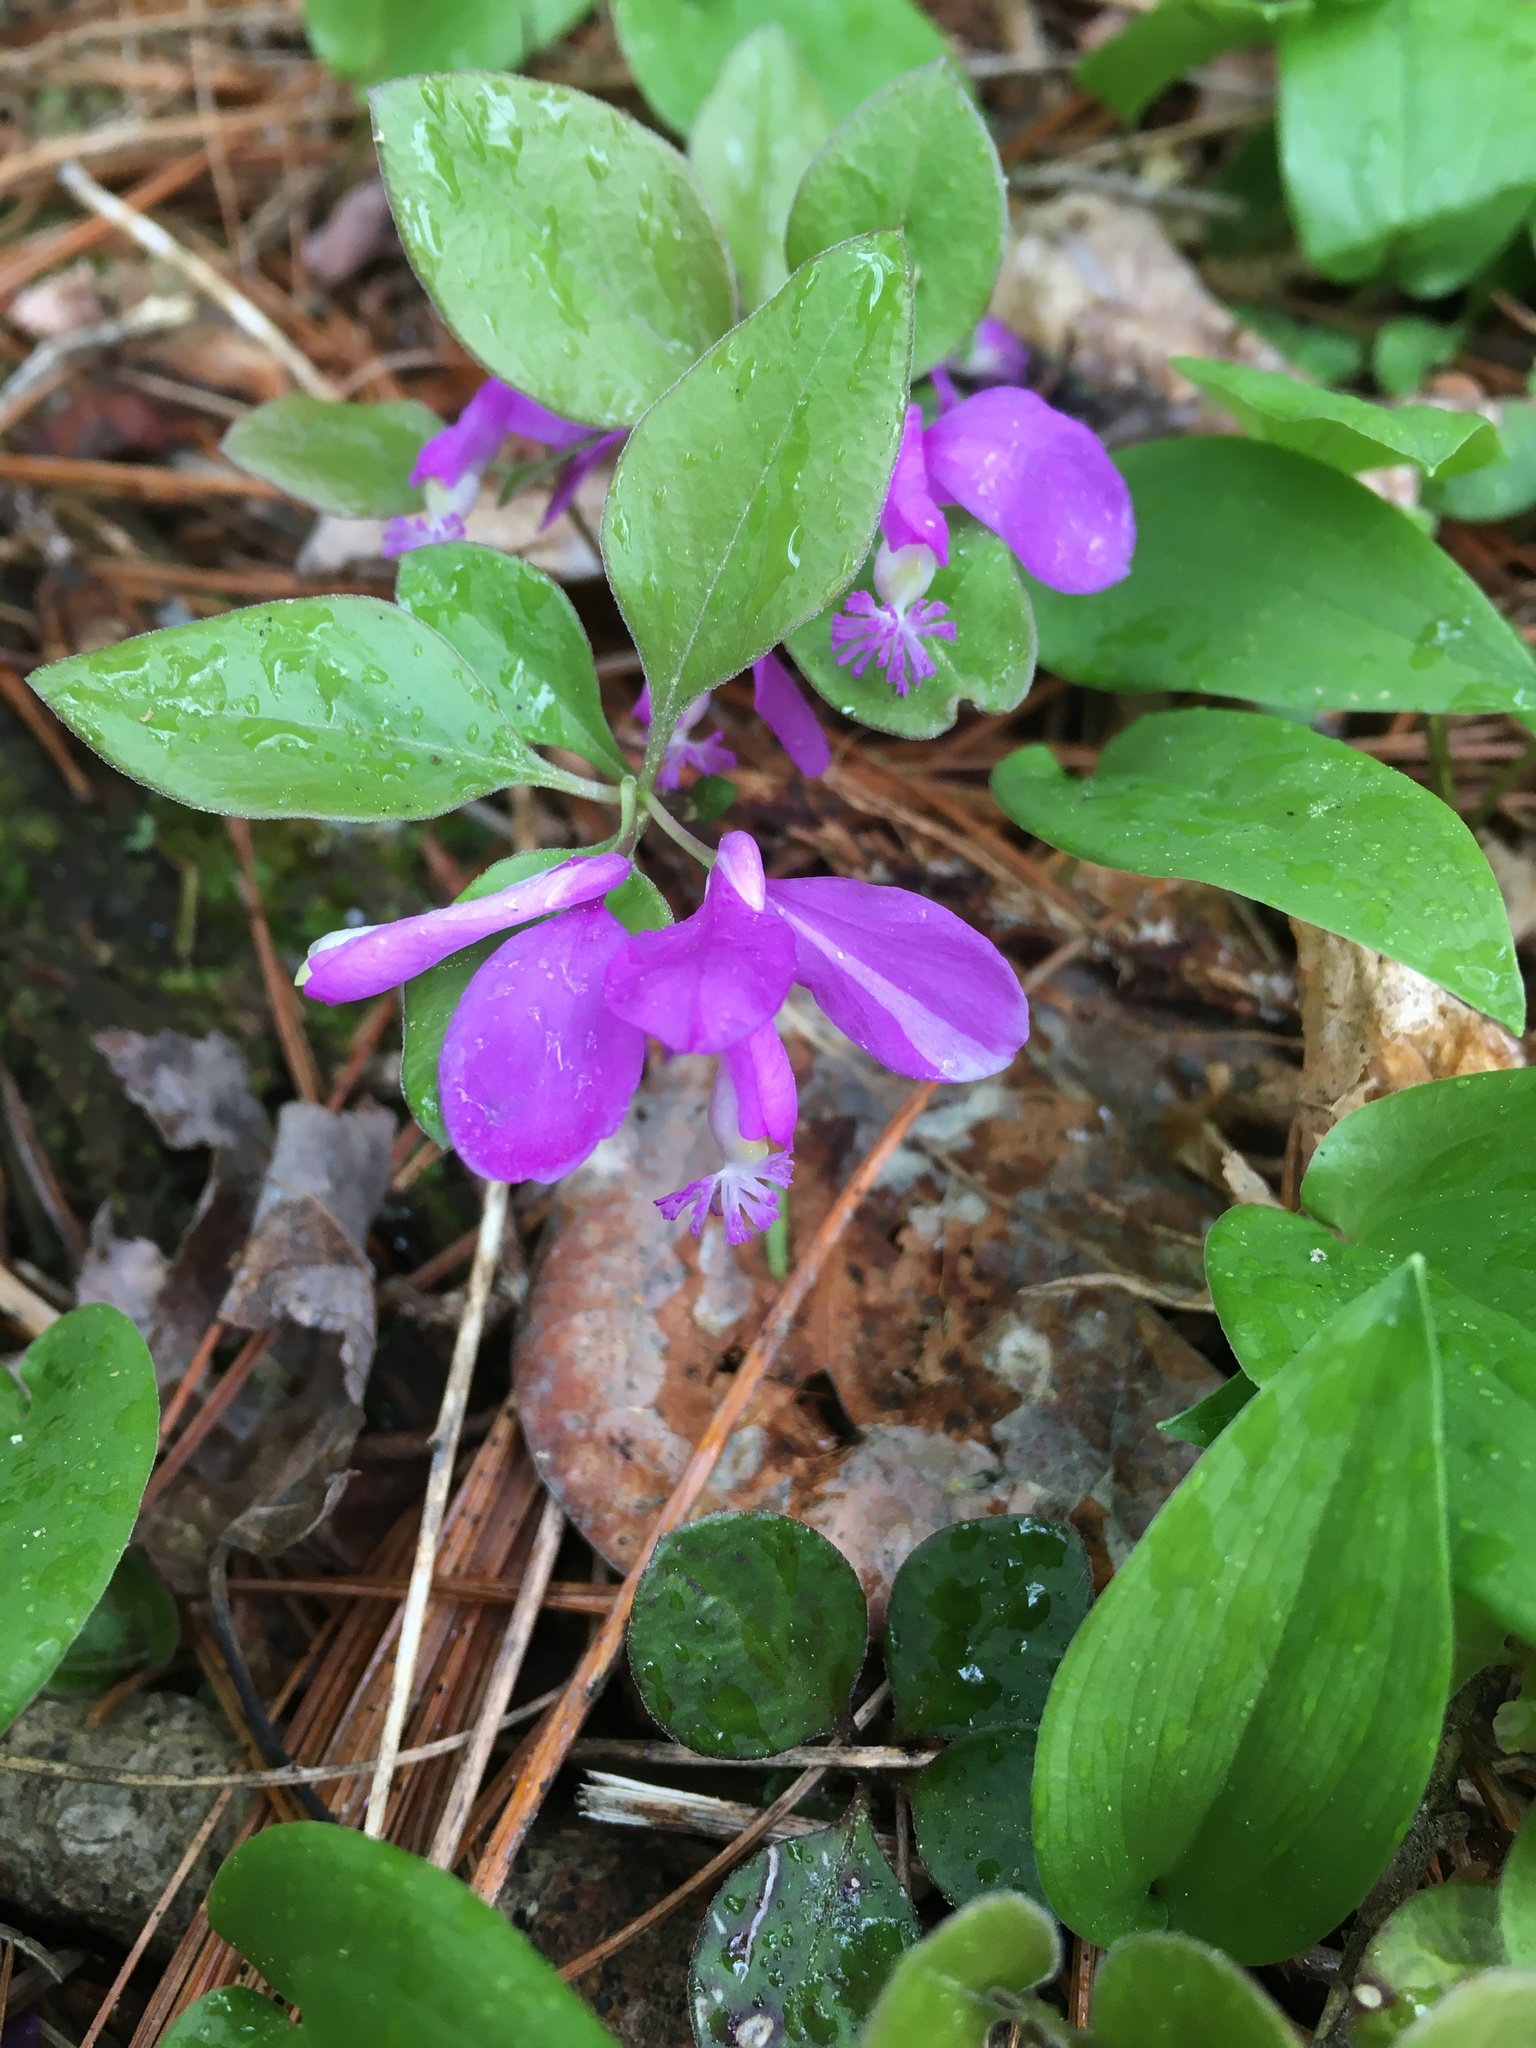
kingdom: Plantae
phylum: Tracheophyta
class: Magnoliopsida
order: Fabales
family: Polygalaceae
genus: Polygaloides
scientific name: Polygaloides paucifolia
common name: Bird-on-the-wing
